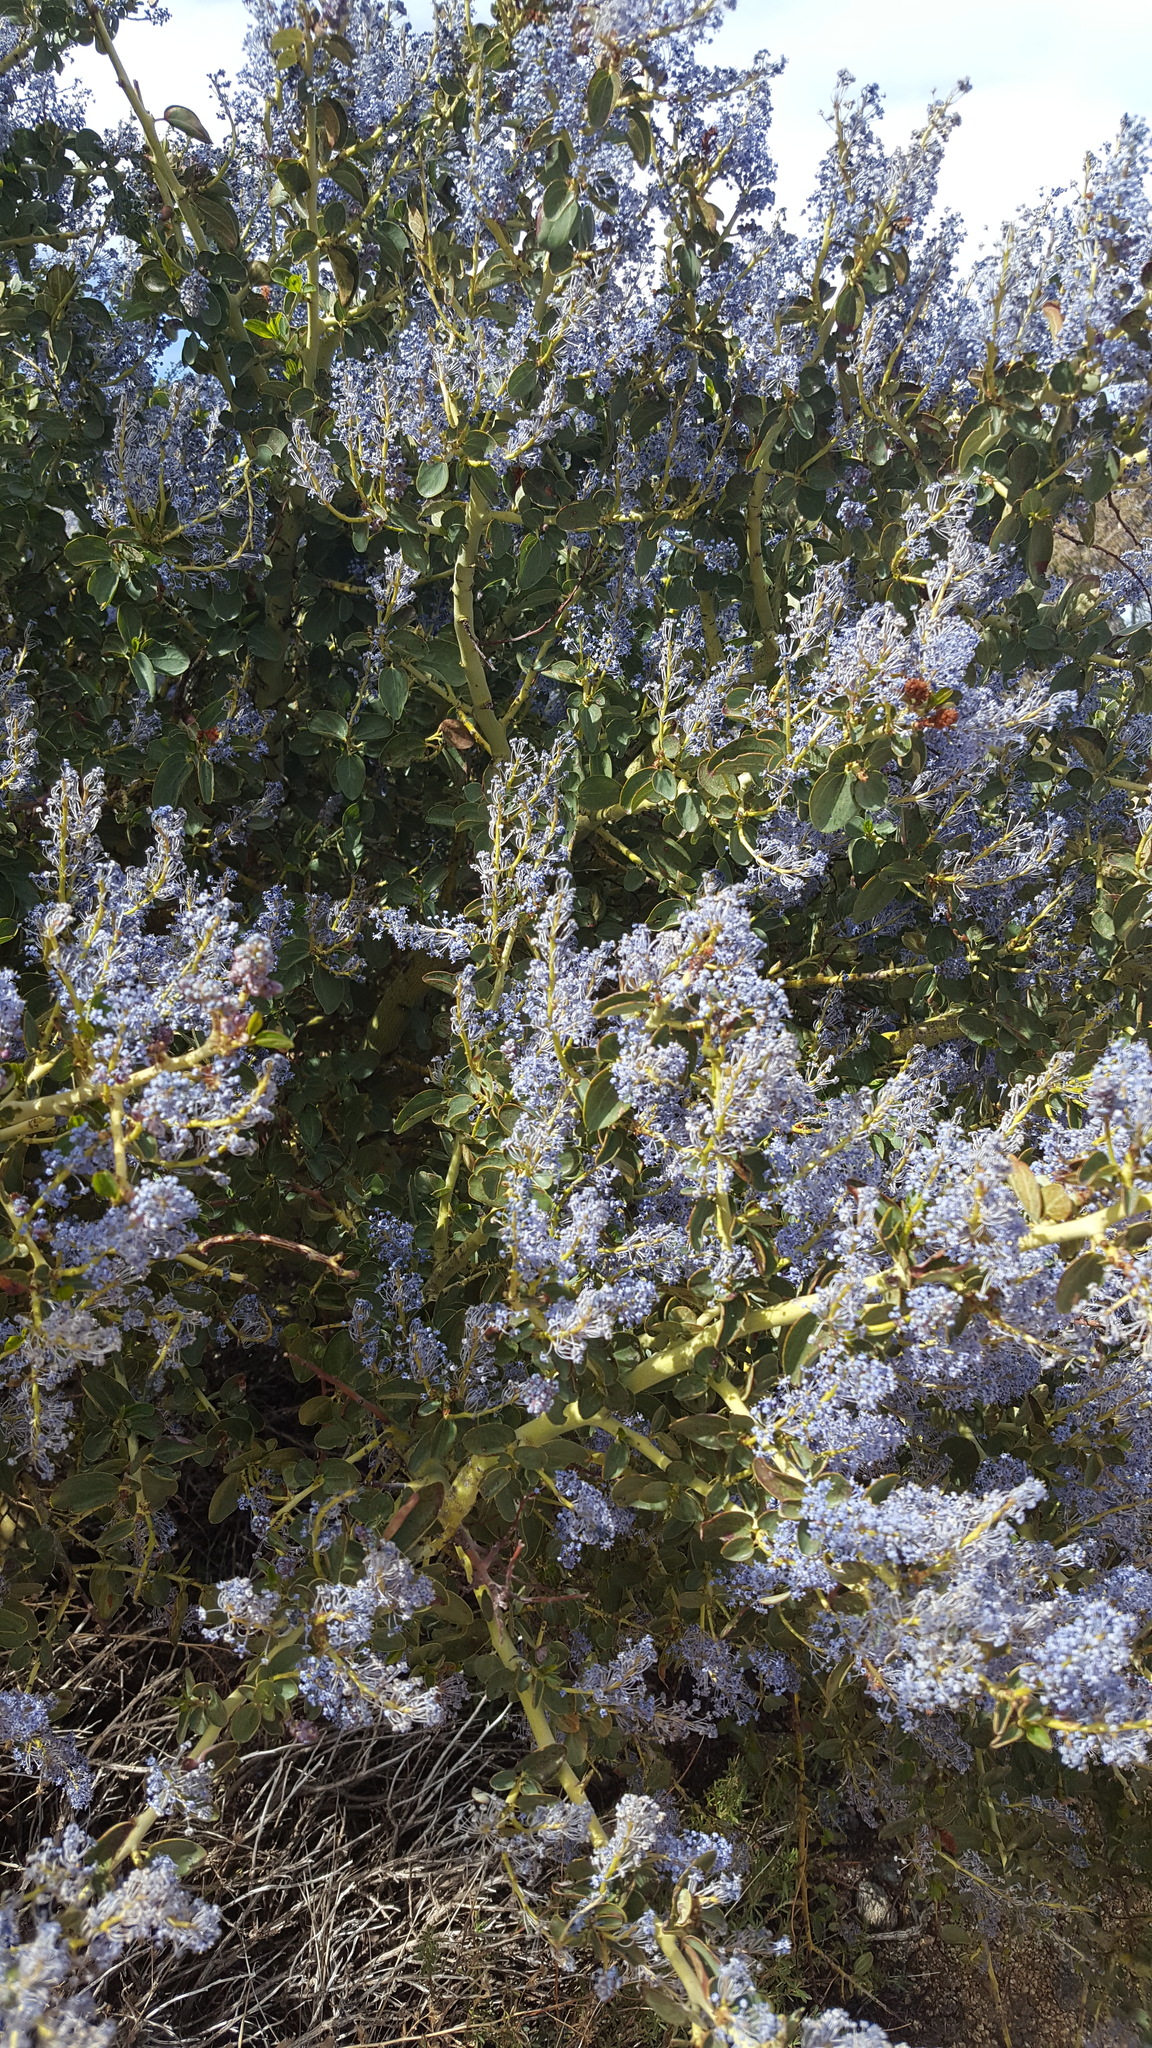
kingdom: Plantae
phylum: Tracheophyta
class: Magnoliopsida
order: Rosales
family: Rhamnaceae
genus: Ceanothus
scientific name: Ceanothus leucodermis
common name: Chaparral whitethorn
